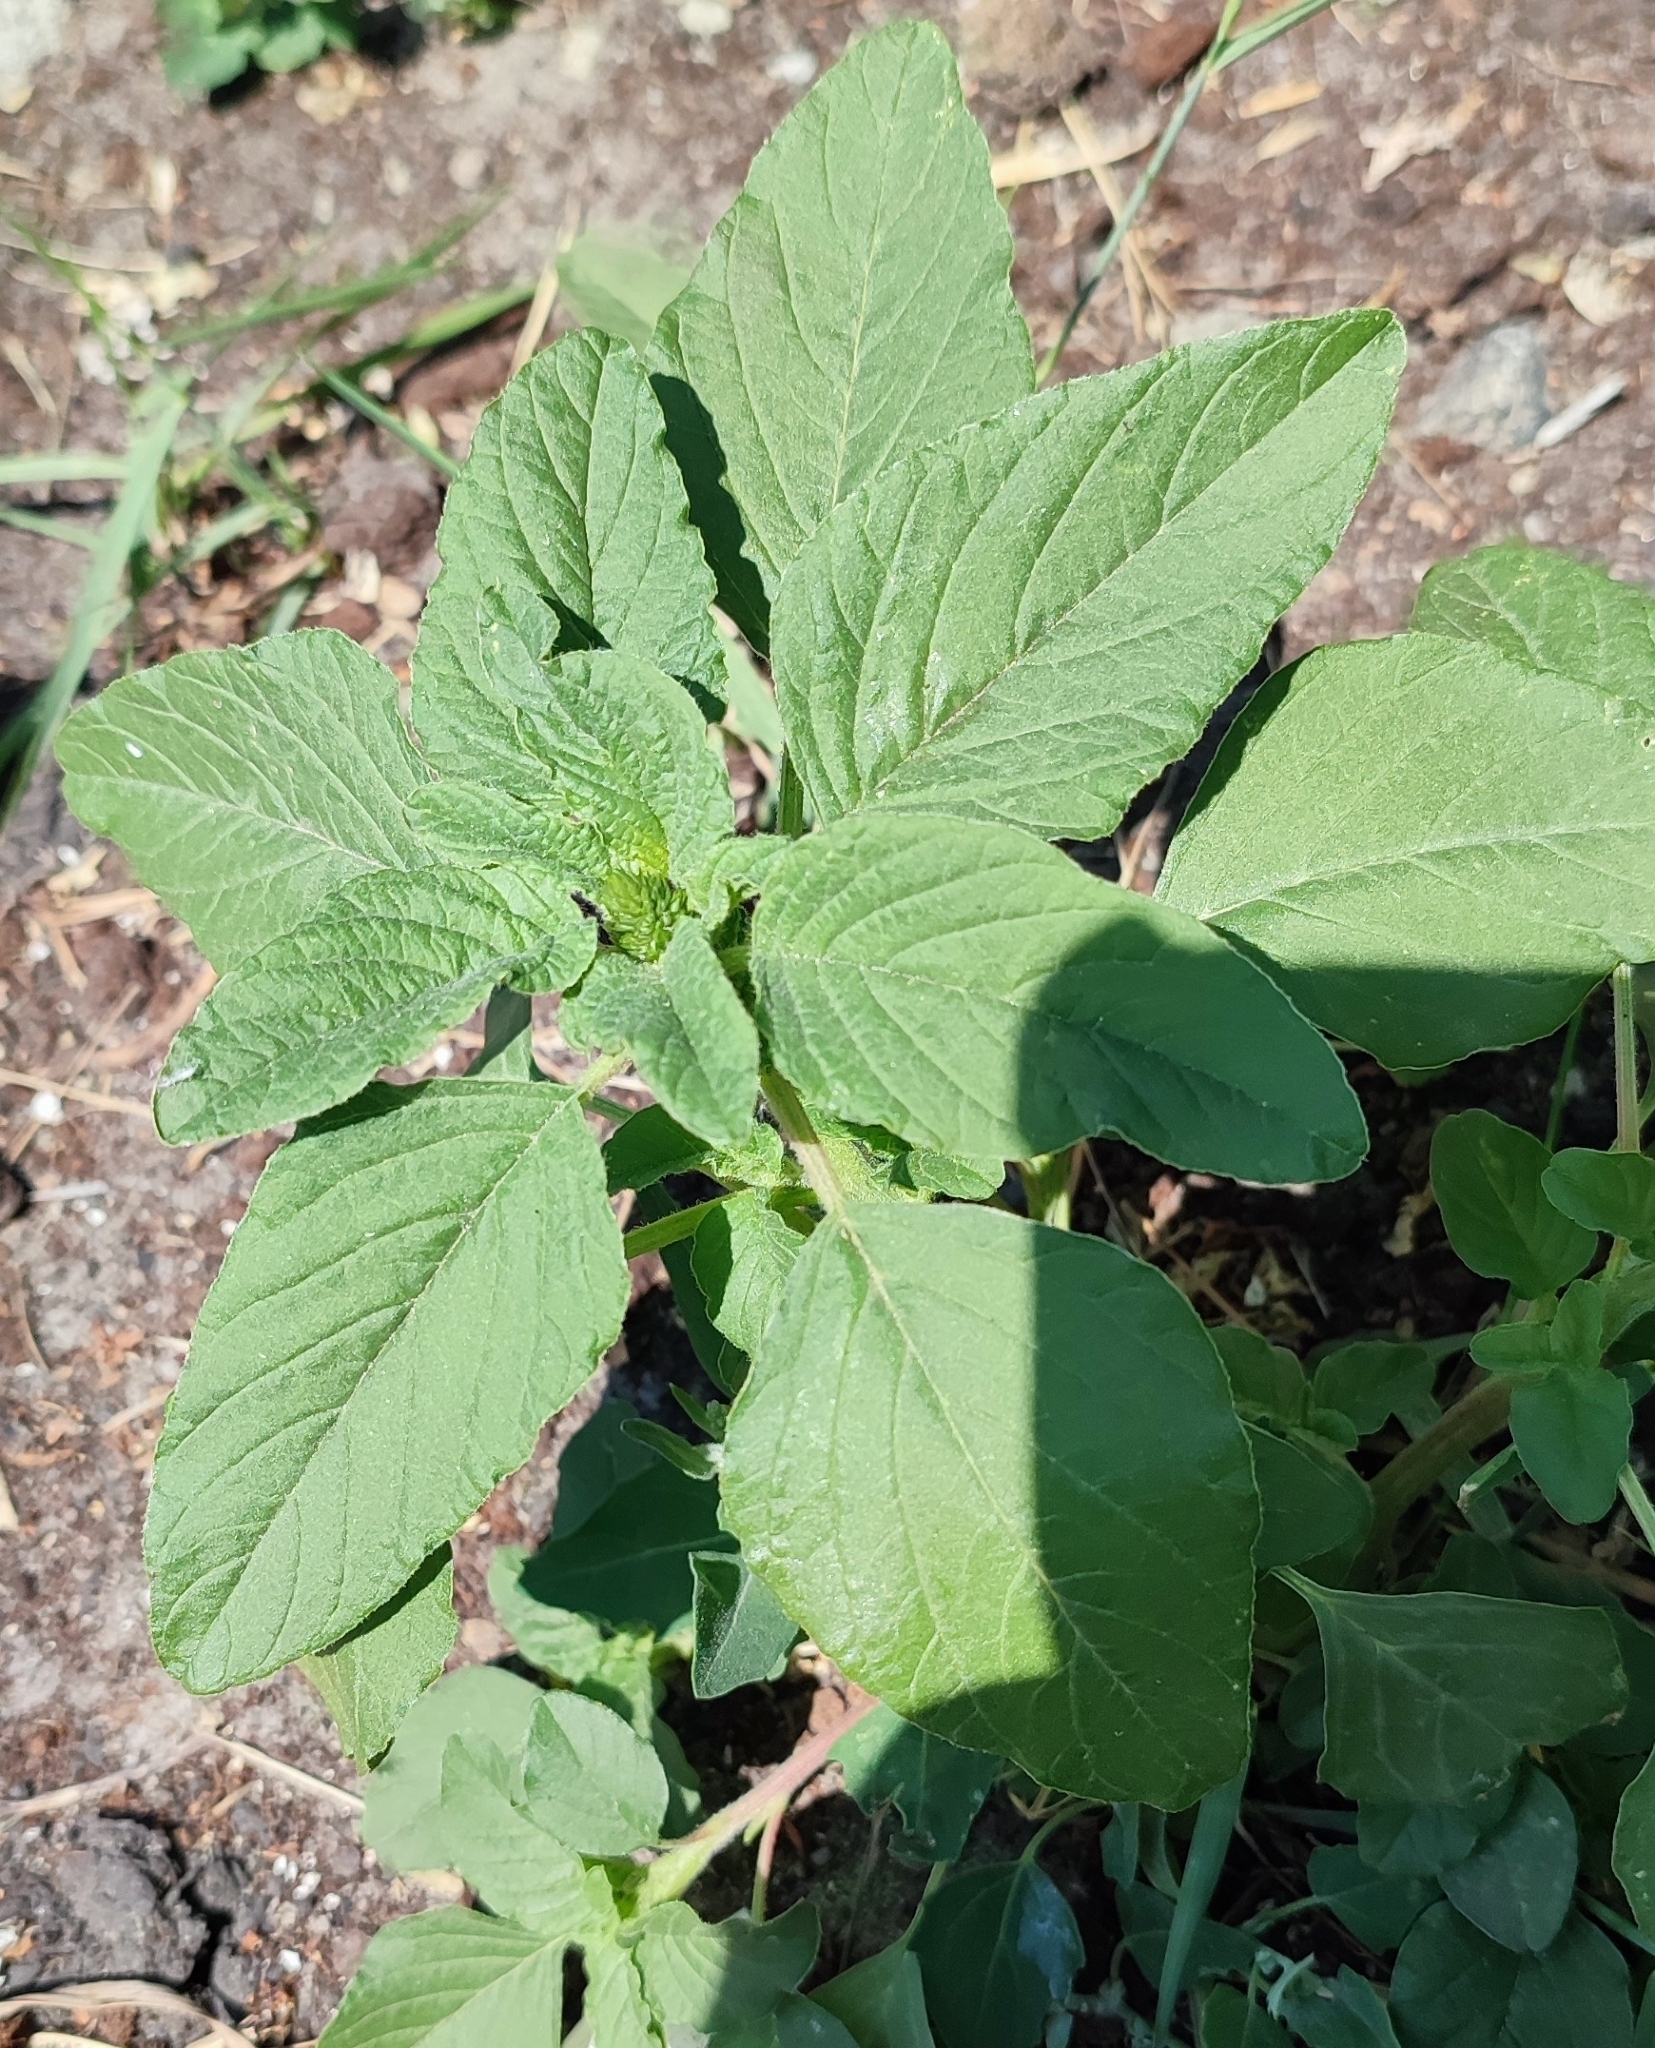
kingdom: Plantae
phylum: Tracheophyta
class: Magnoliopsida
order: Caryophyllales
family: Amaranthaceae
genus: Amaranthus
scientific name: Amaranthus retroflexus
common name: Redroot amaranth
